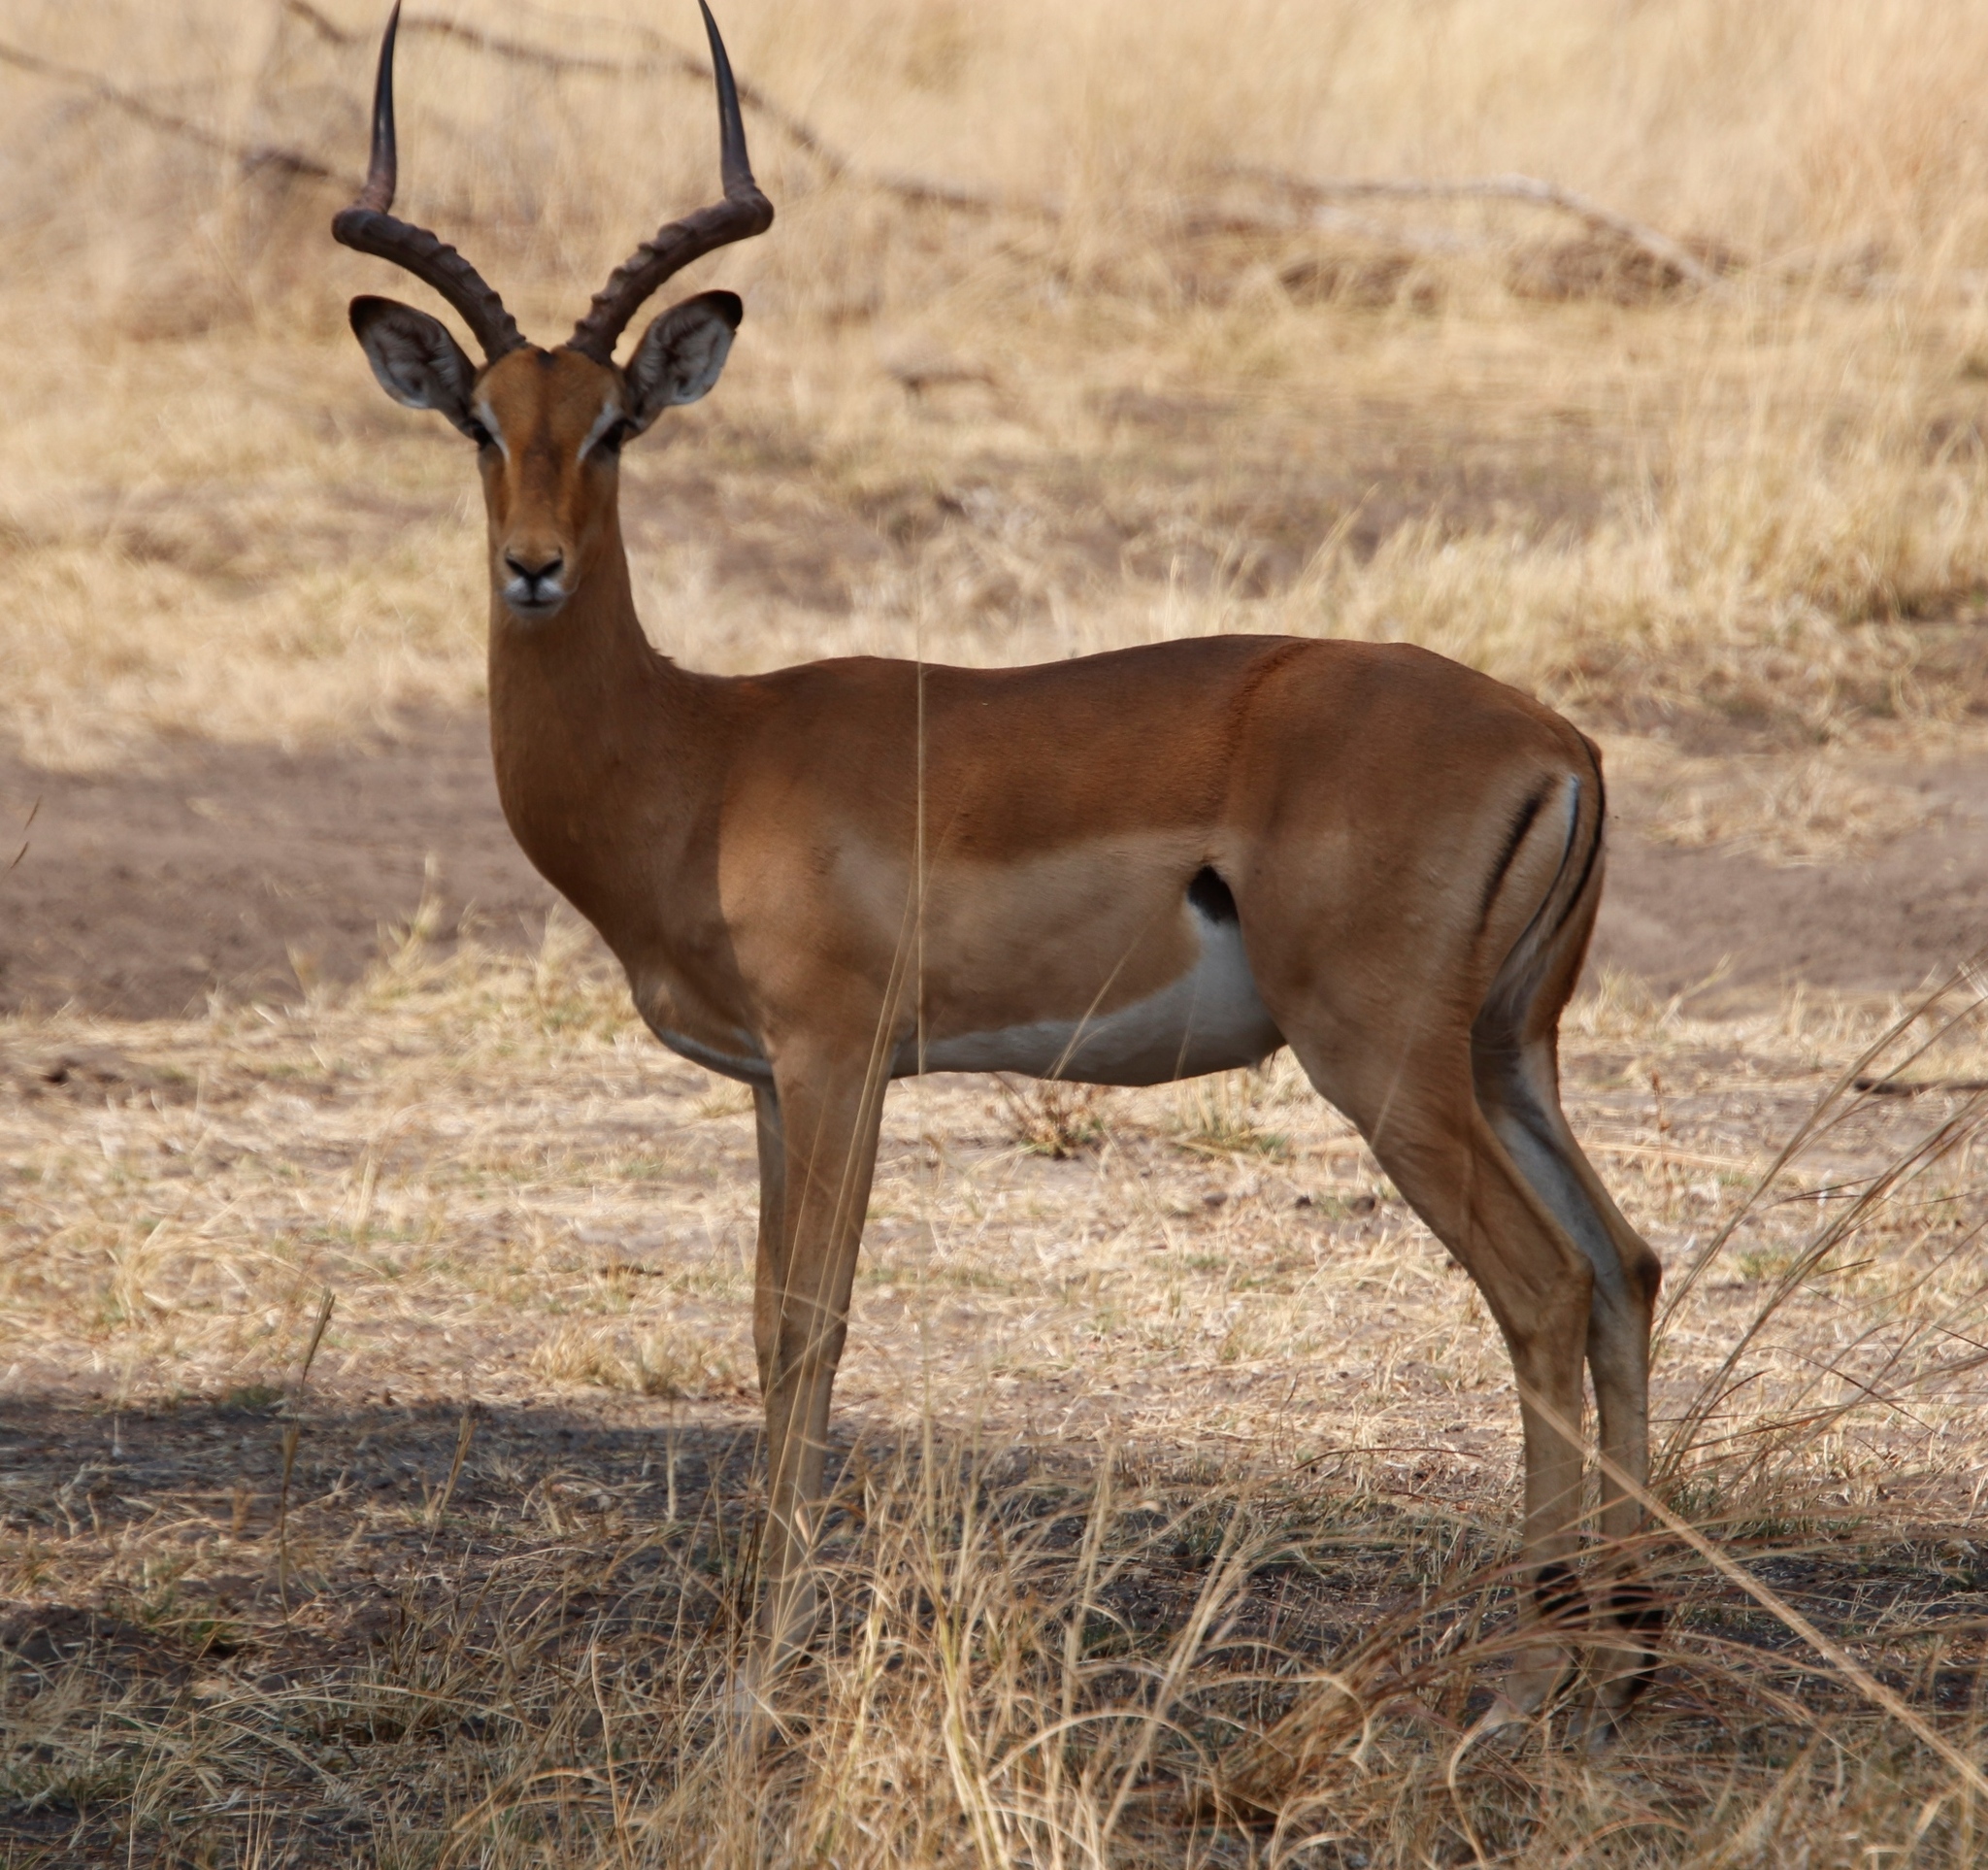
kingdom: Animalia
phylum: Chordata
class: Mammalia
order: Artiodactyla
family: Bovidae
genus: Aepyceros
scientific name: Aepyceros melampus
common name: Impala
